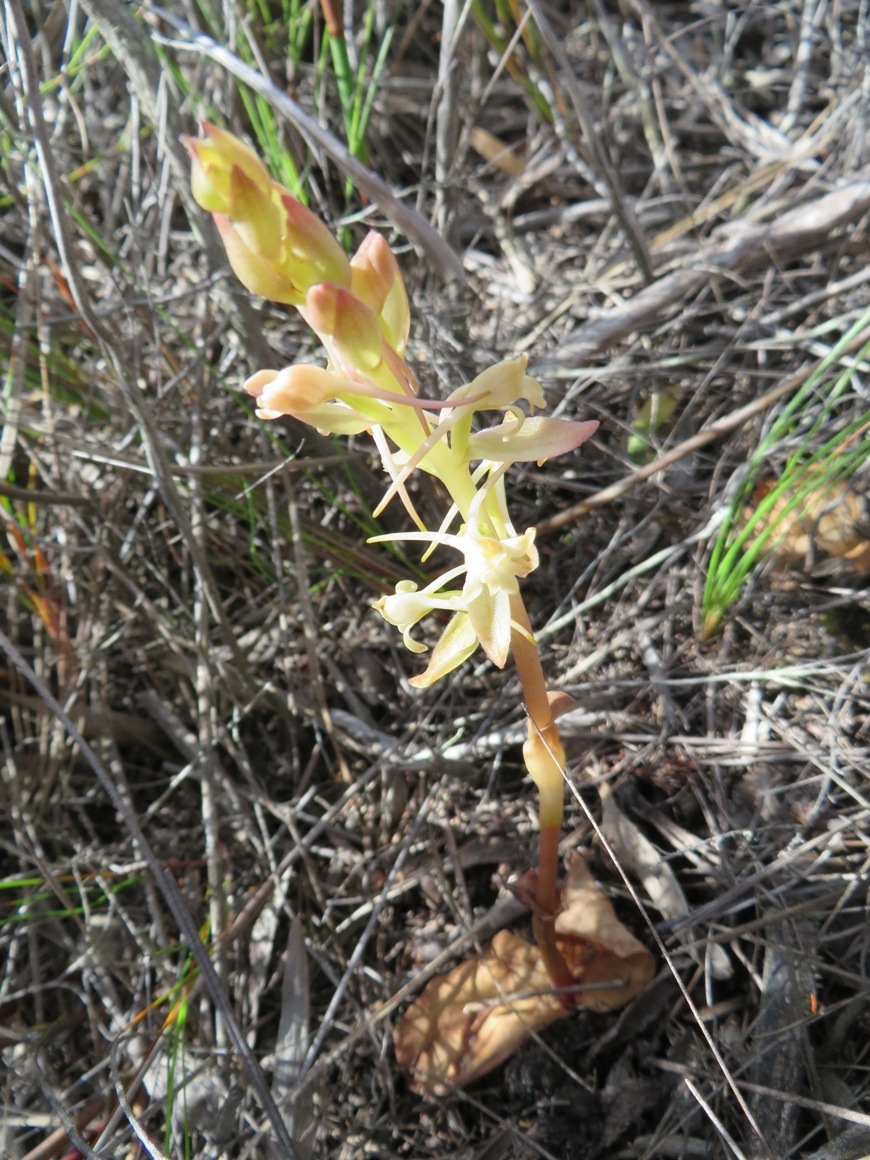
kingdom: Plantae
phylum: Tracheophyta
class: Liliopsida
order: Asparagales
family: Orchidaceae
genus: Satyrium
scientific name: Satyrium humile
